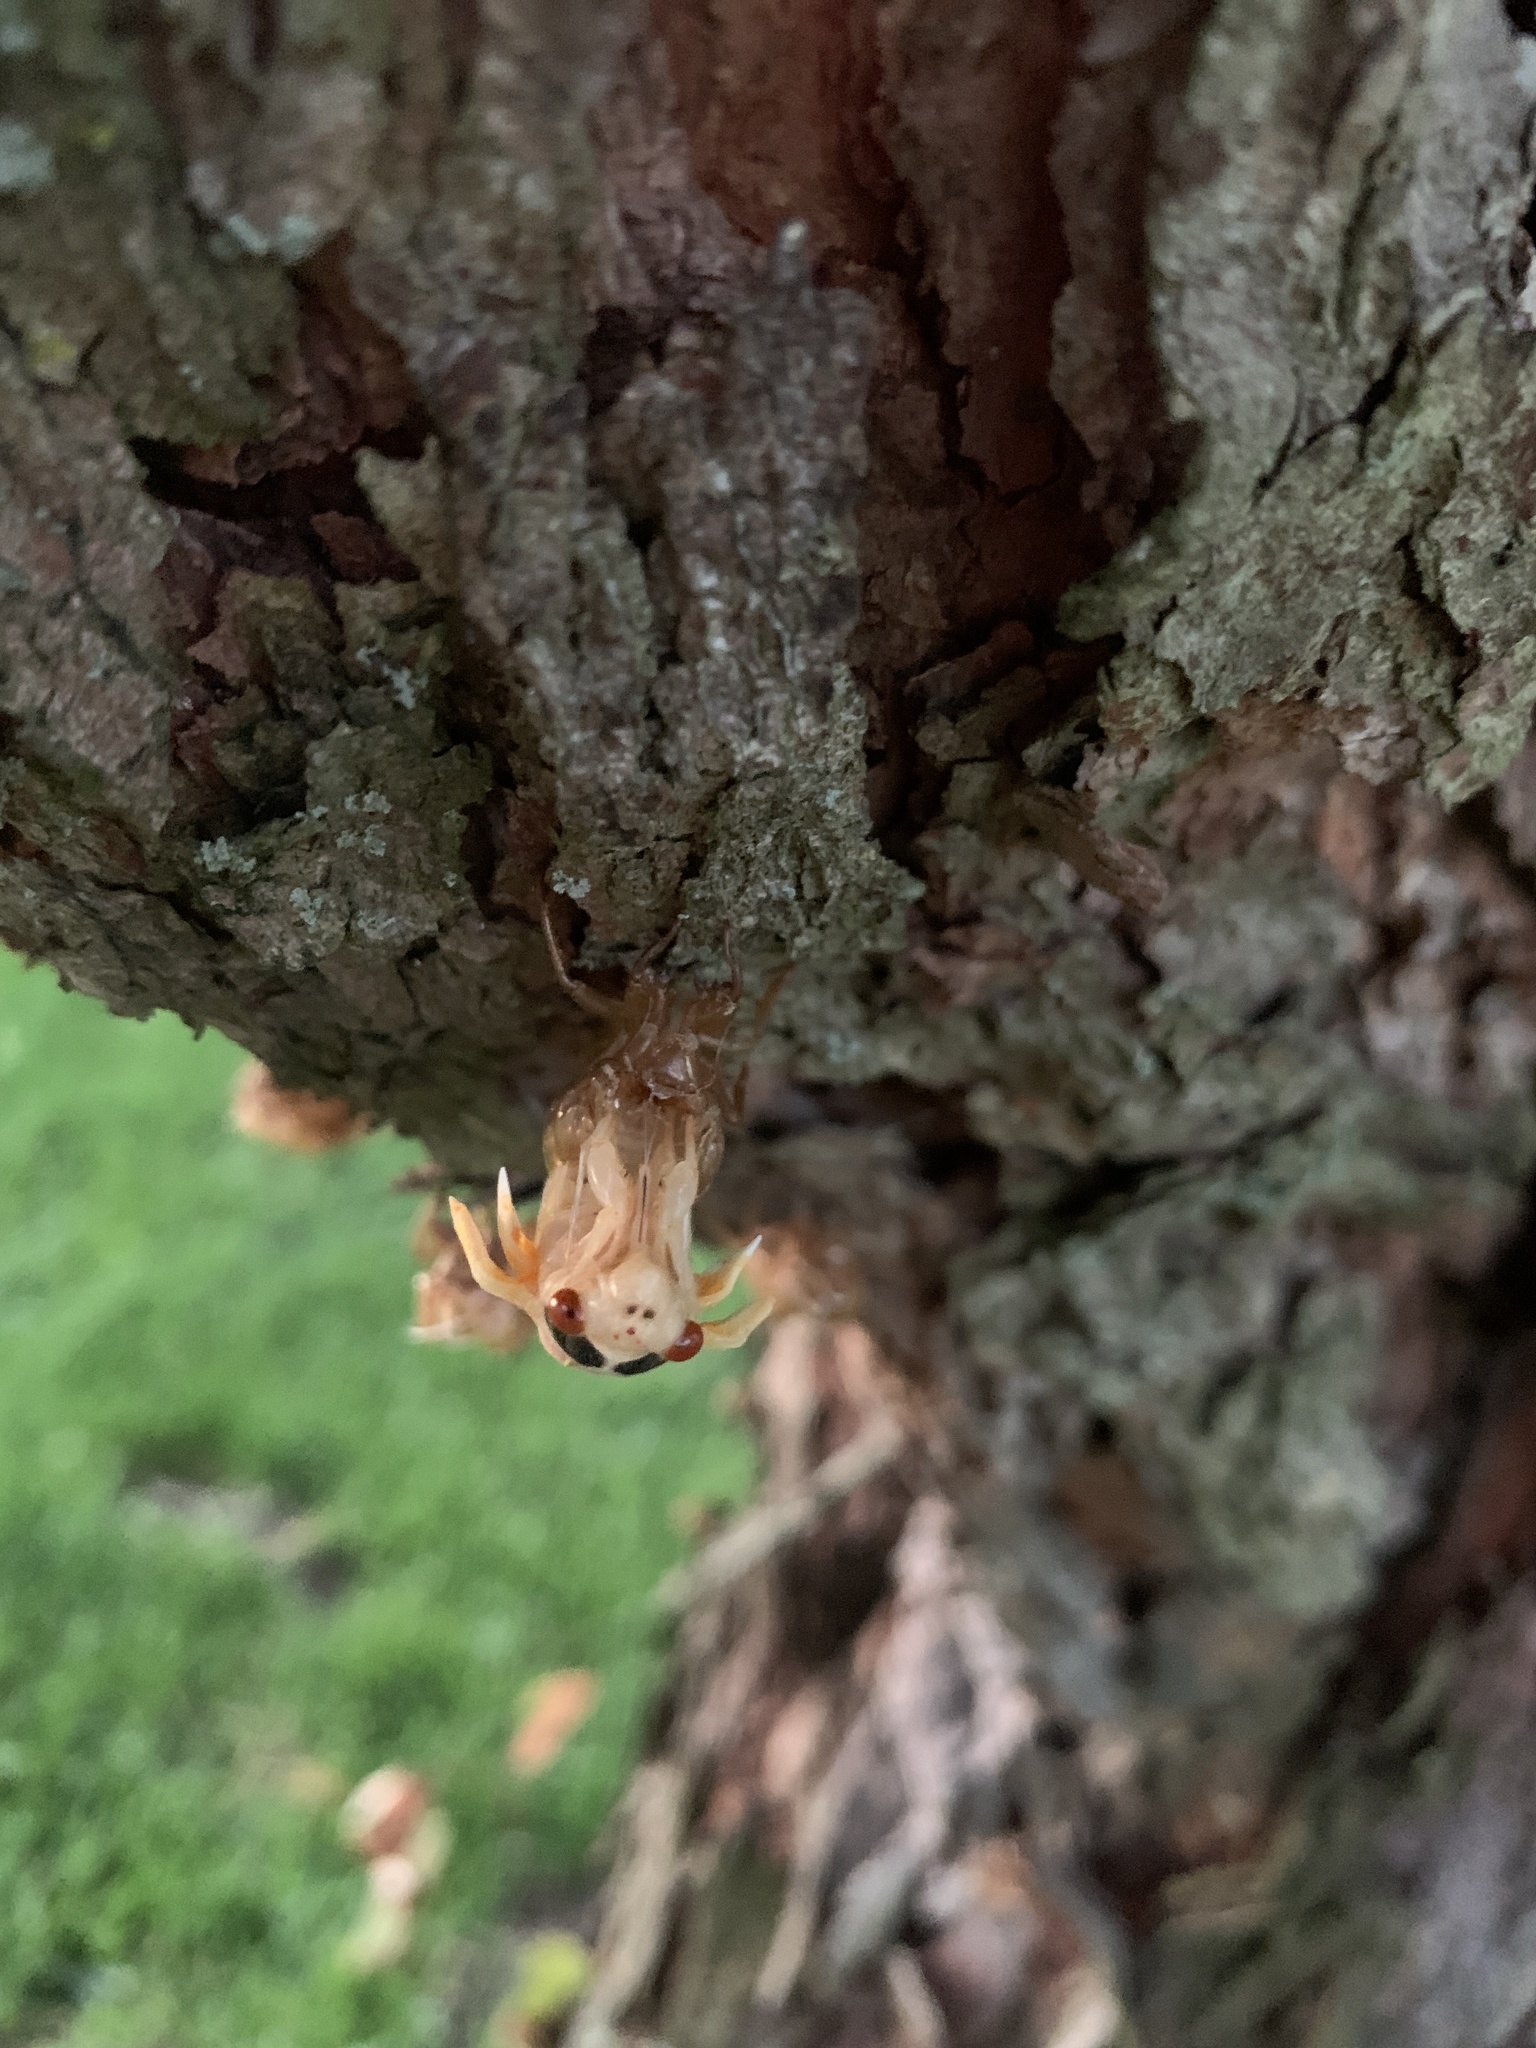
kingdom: Animalia
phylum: Arthropoda
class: Insecta
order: Hemiptera
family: Cicadidae
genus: Magicicada
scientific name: Magicicada
